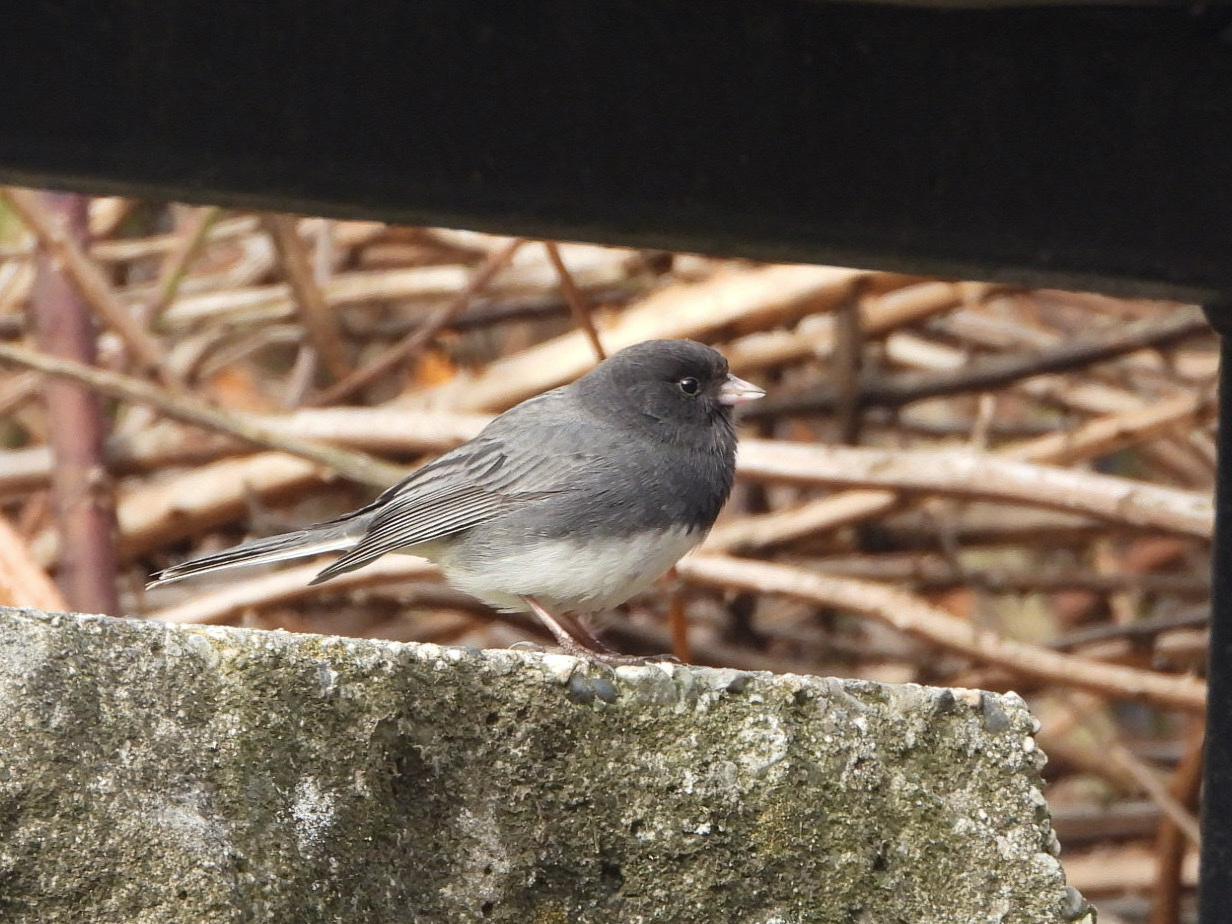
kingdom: Animalia
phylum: Chordata
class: Aves
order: Passeriformes
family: Passerellidae
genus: Junco
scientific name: Junco hyemalis
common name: Dark-eyed junco
